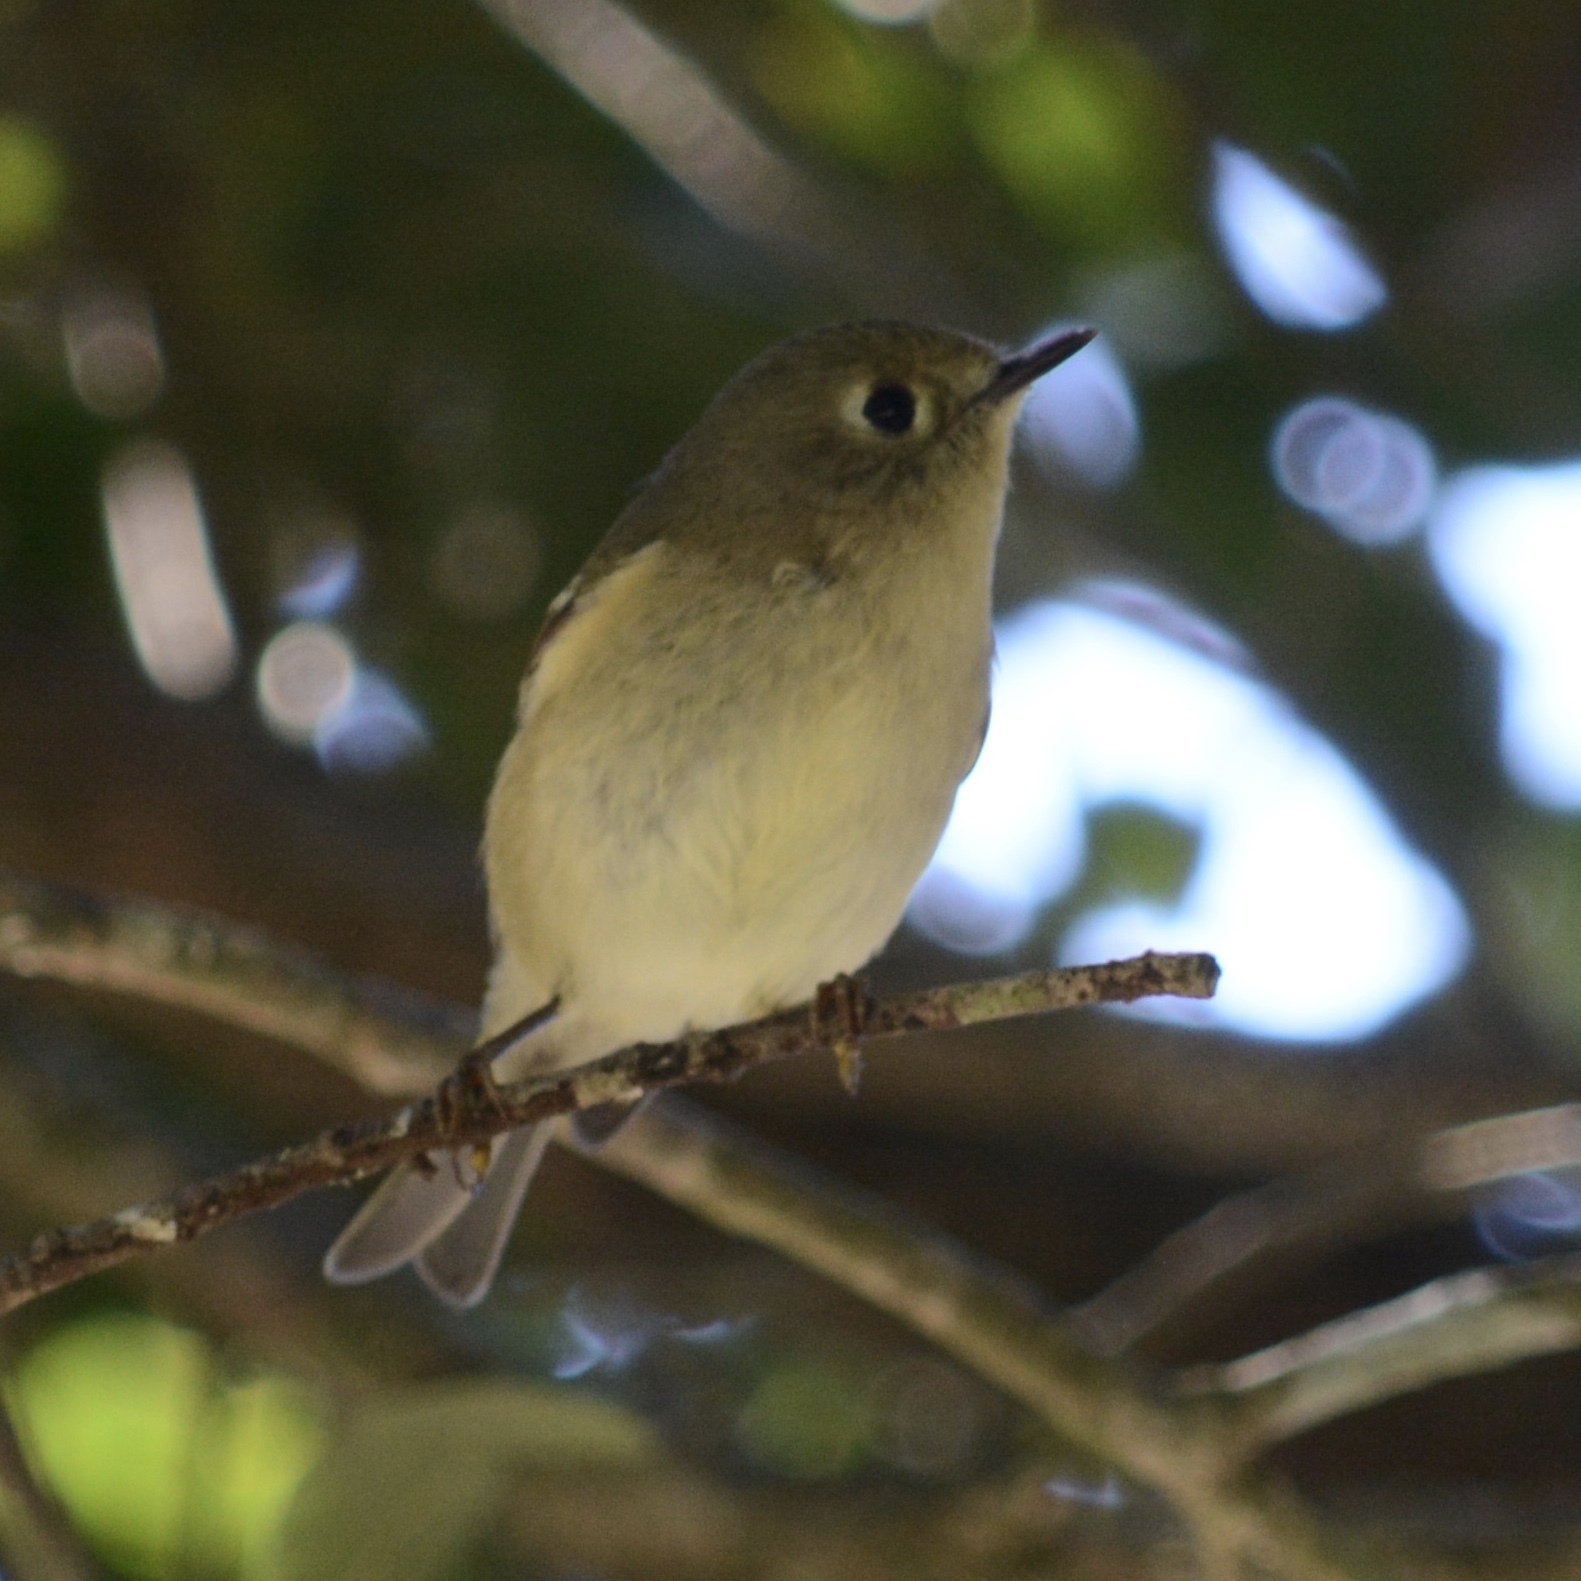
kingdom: Animalia
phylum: Chordata
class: Aves
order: Passeriformes
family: Regulidae
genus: Regulus
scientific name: Regulus calendula
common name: Ruby-crowned kinglet
